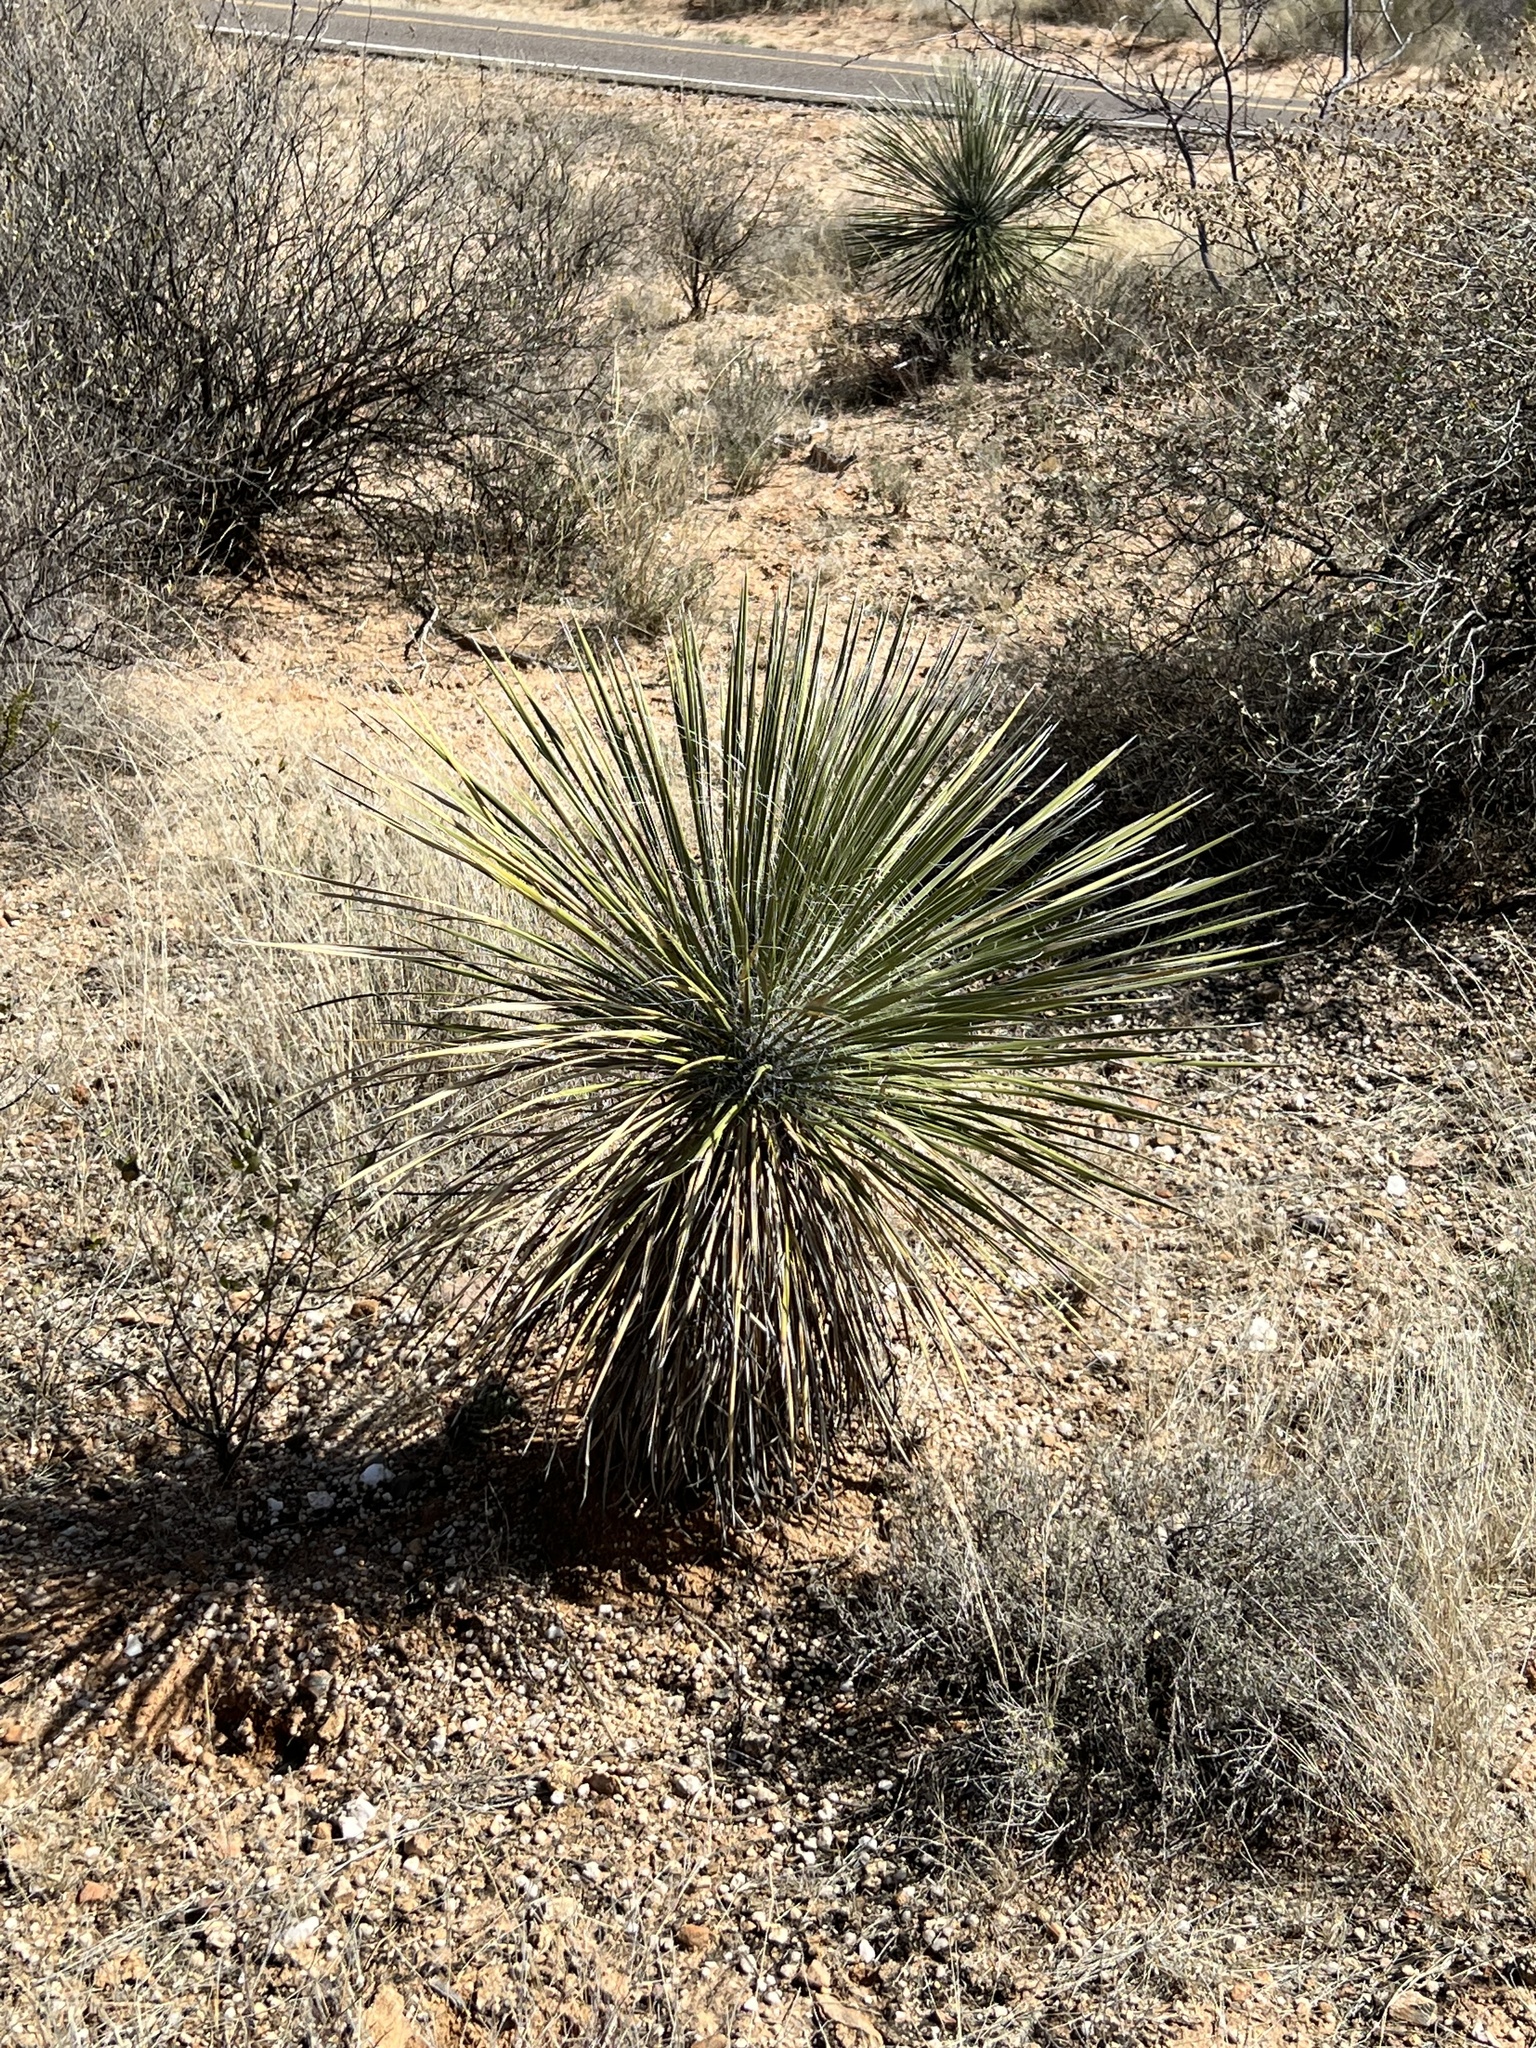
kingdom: Plantae
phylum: Tracheophyta
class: Liliopsida
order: Asparagales
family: Asparagaceae
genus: Yucca
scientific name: Yucca elata
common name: Palmella
